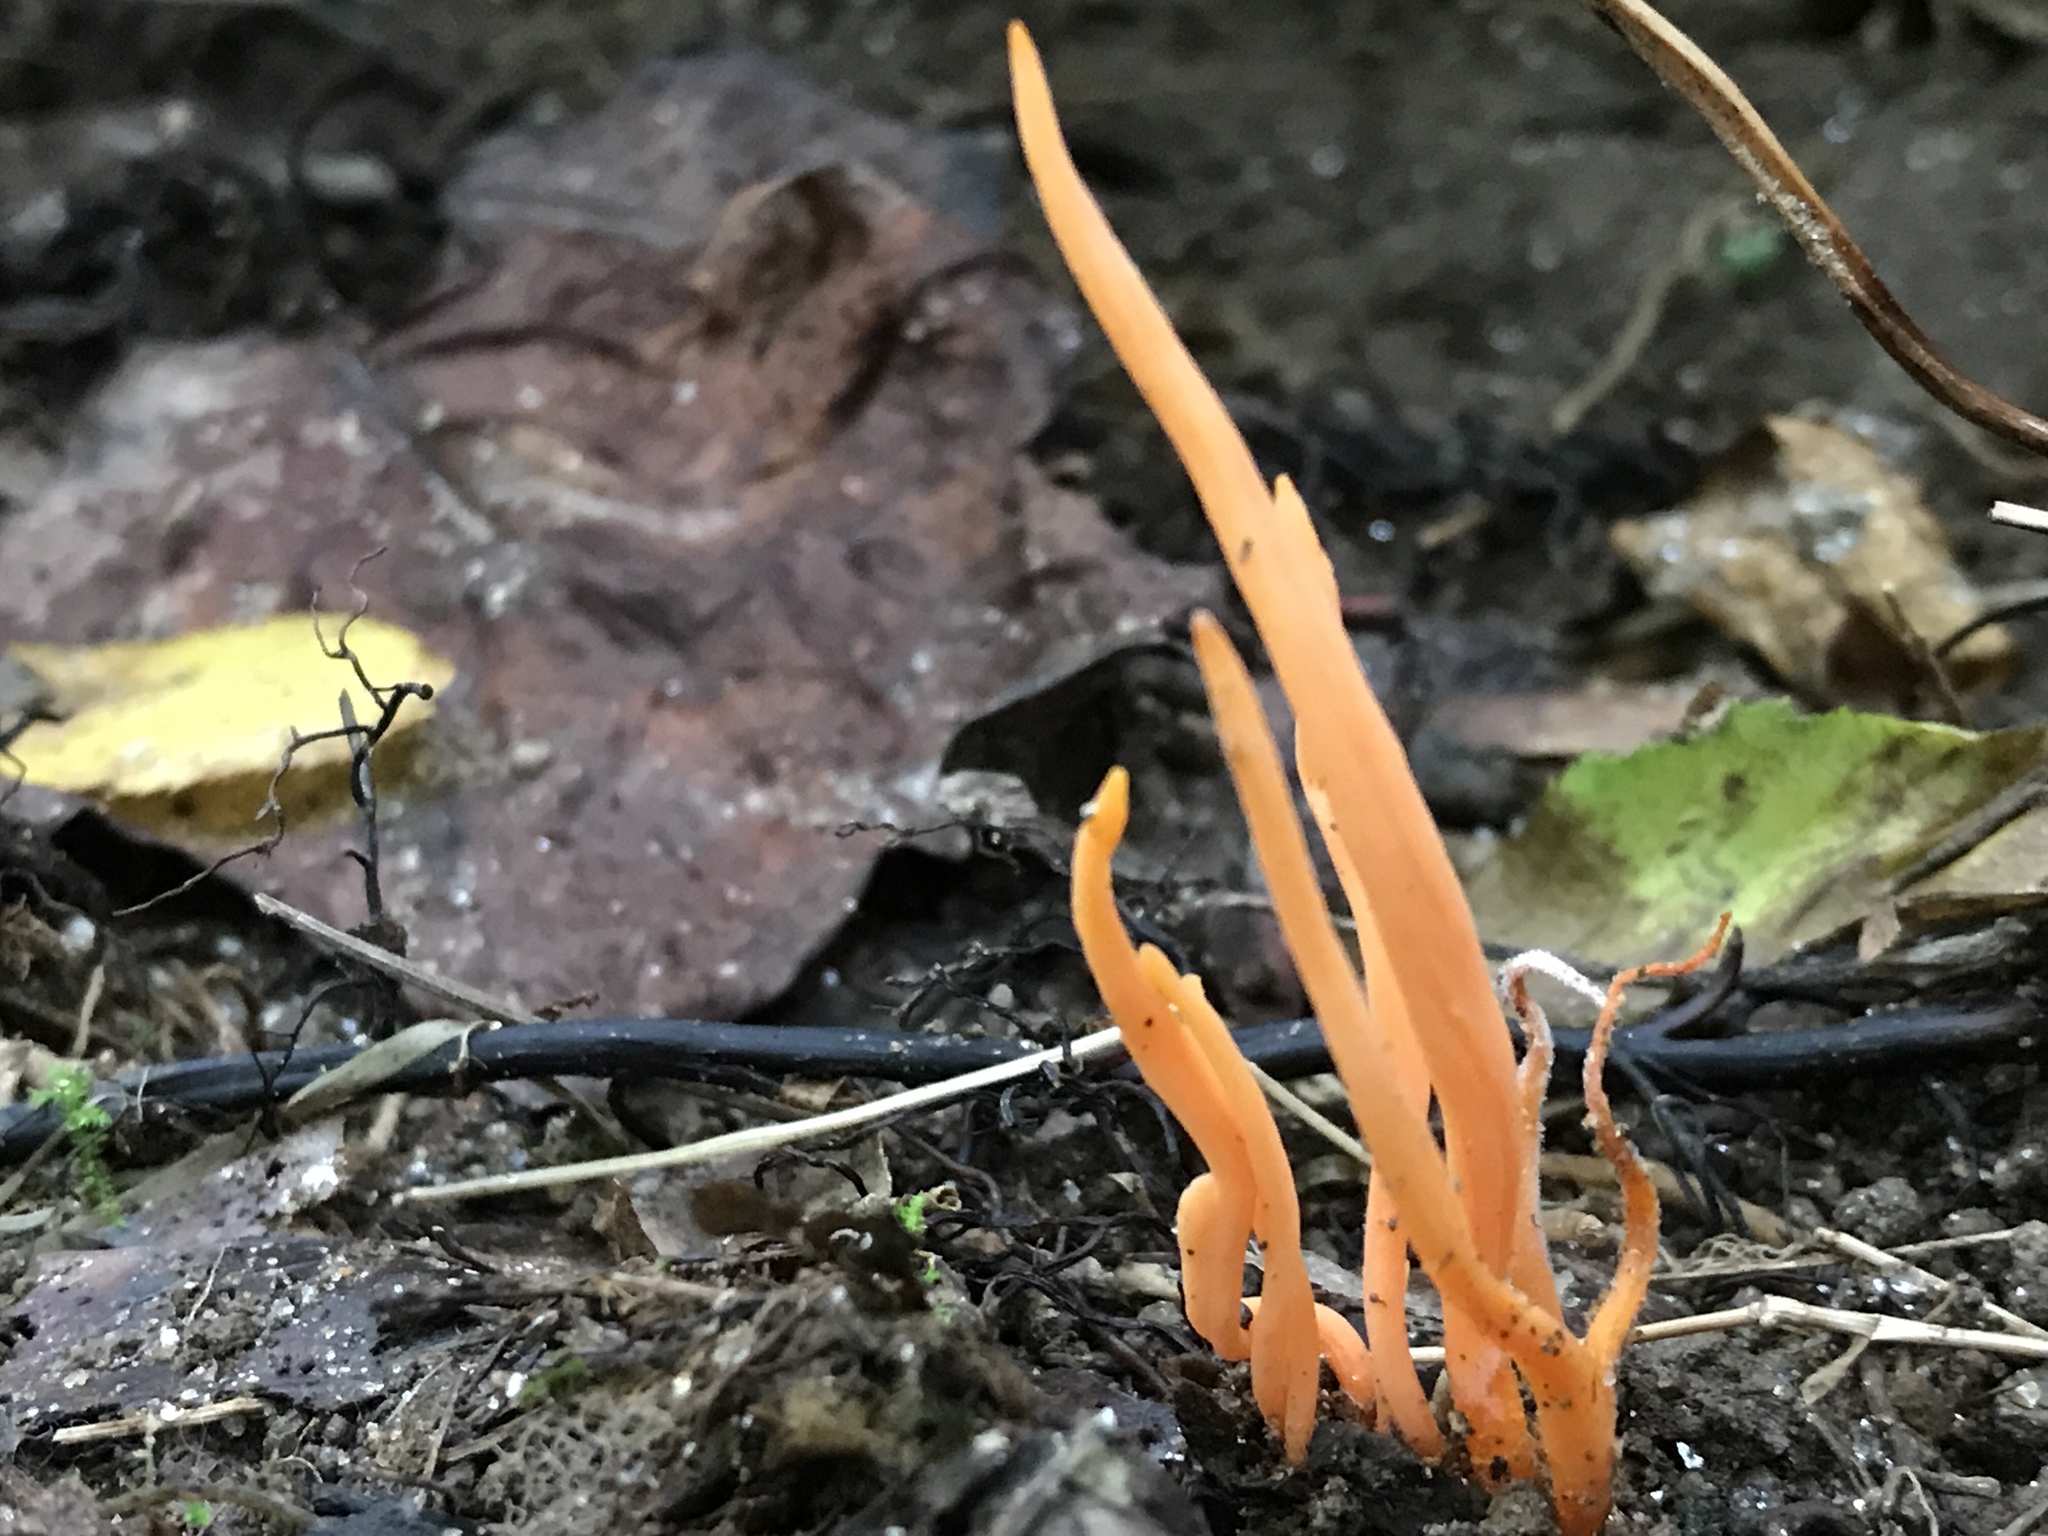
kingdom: Fungi
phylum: Basidiomycota
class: Agaricomycetes
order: Agaricales
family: Clavariaceae
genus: Clavulinopsis
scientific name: Clavulinopsis aurantiocinnabarina
